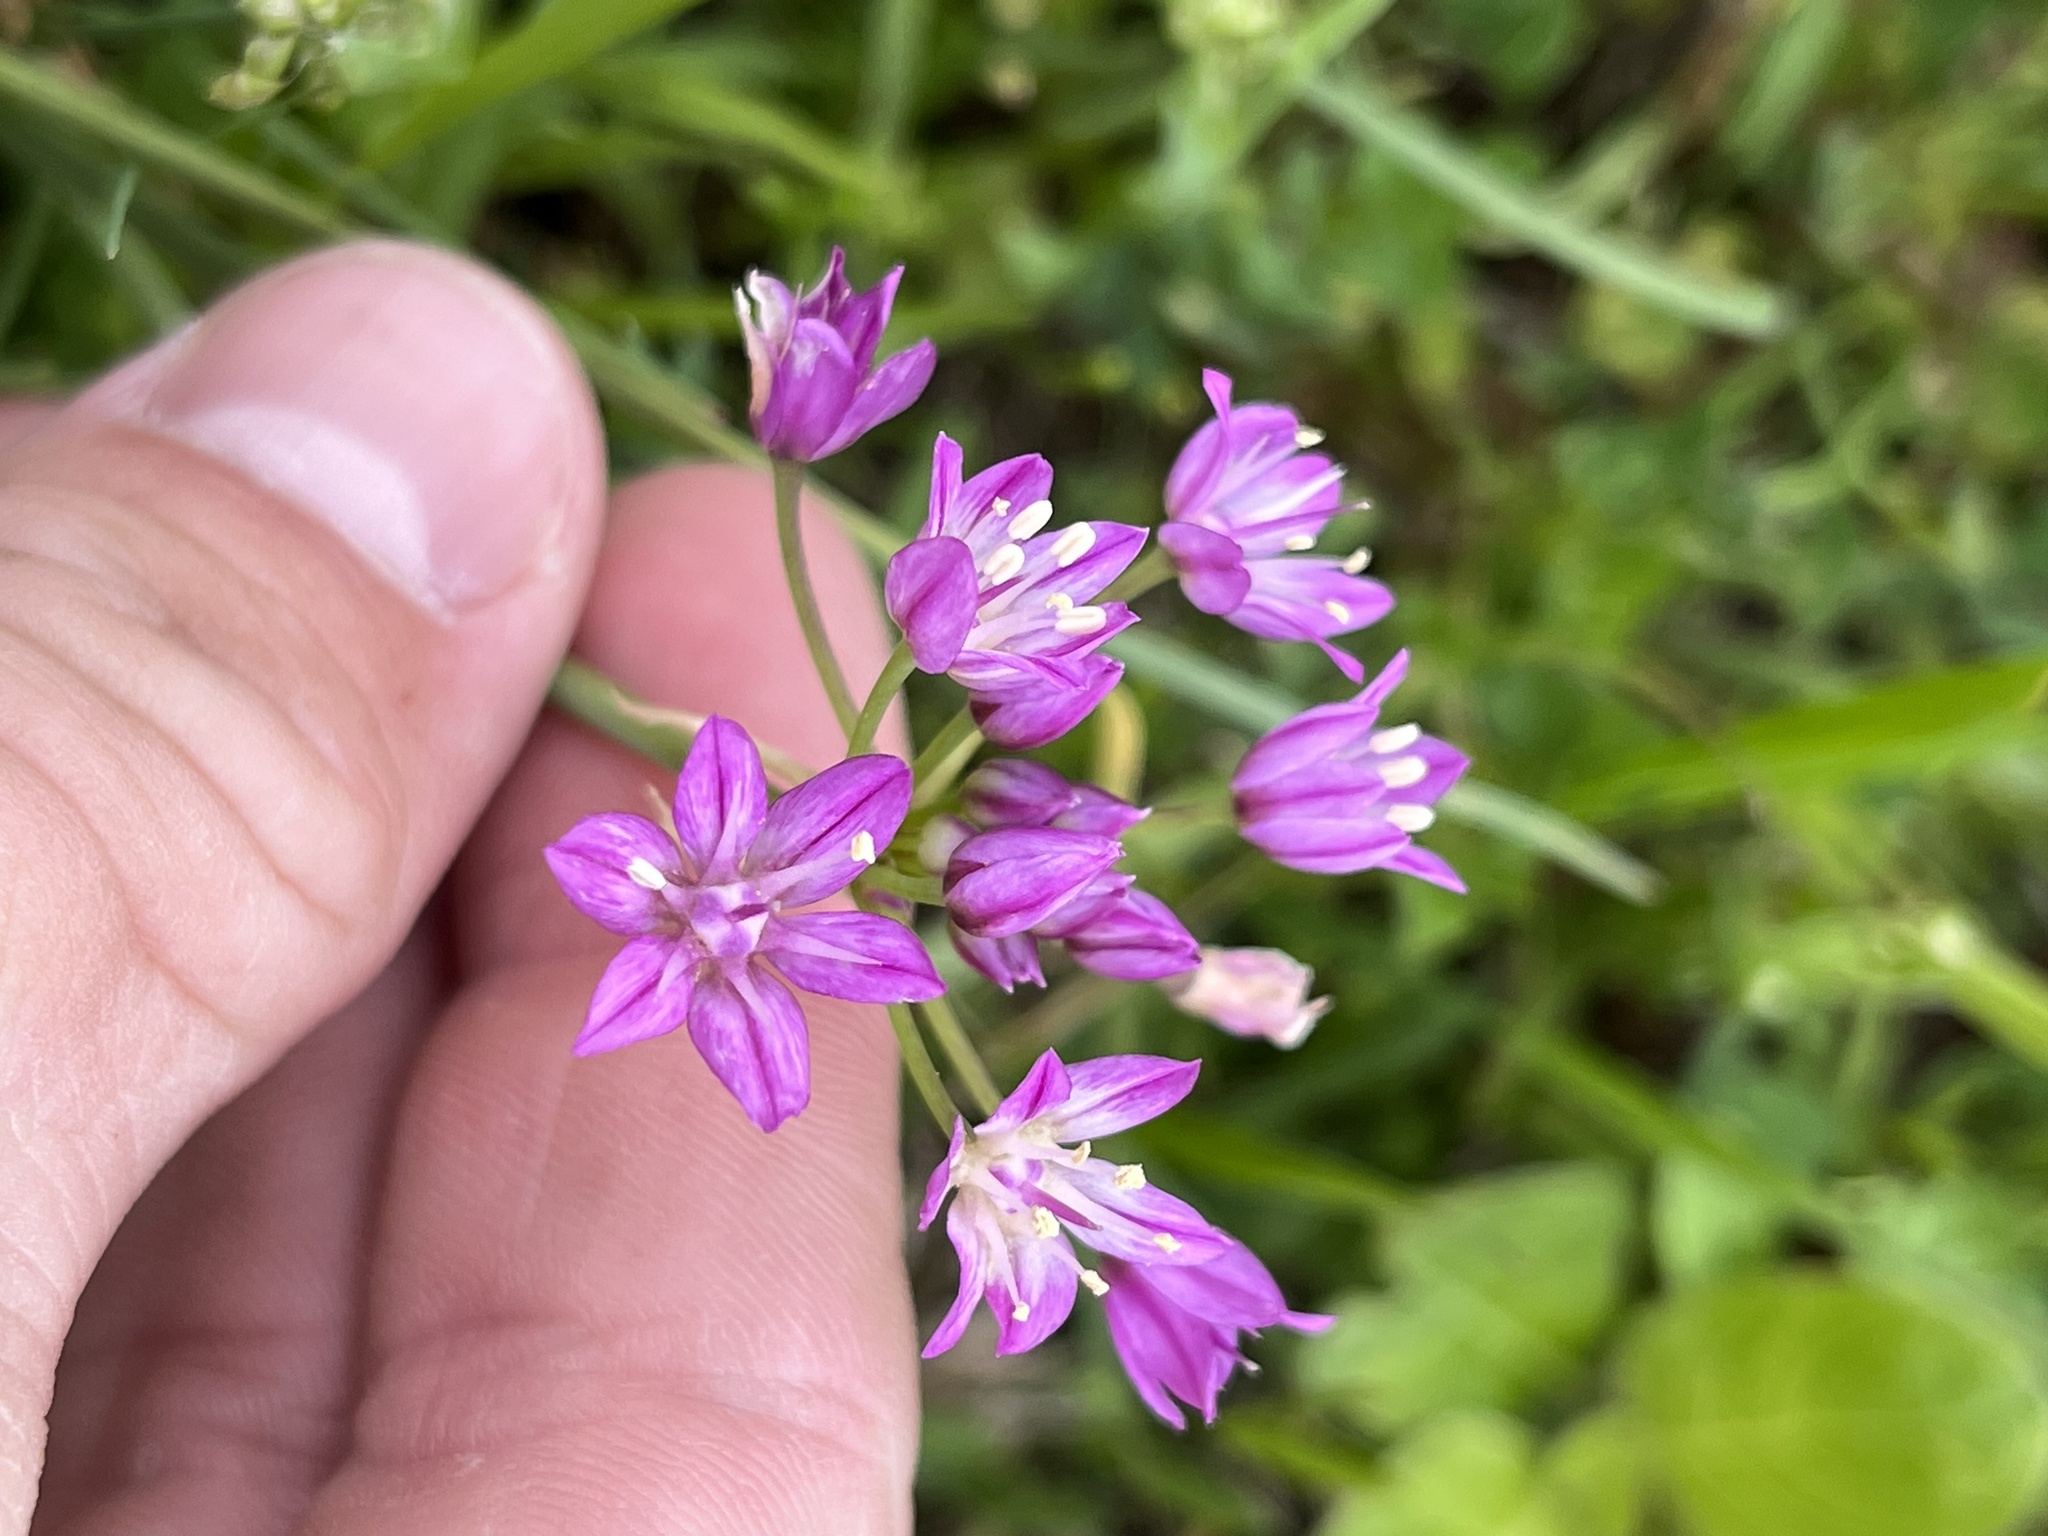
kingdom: Plantae
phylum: Tracheophyta
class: Liliopsida
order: Asparagales
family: Amaryllidaceae
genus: Allium
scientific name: Allium drummondii
